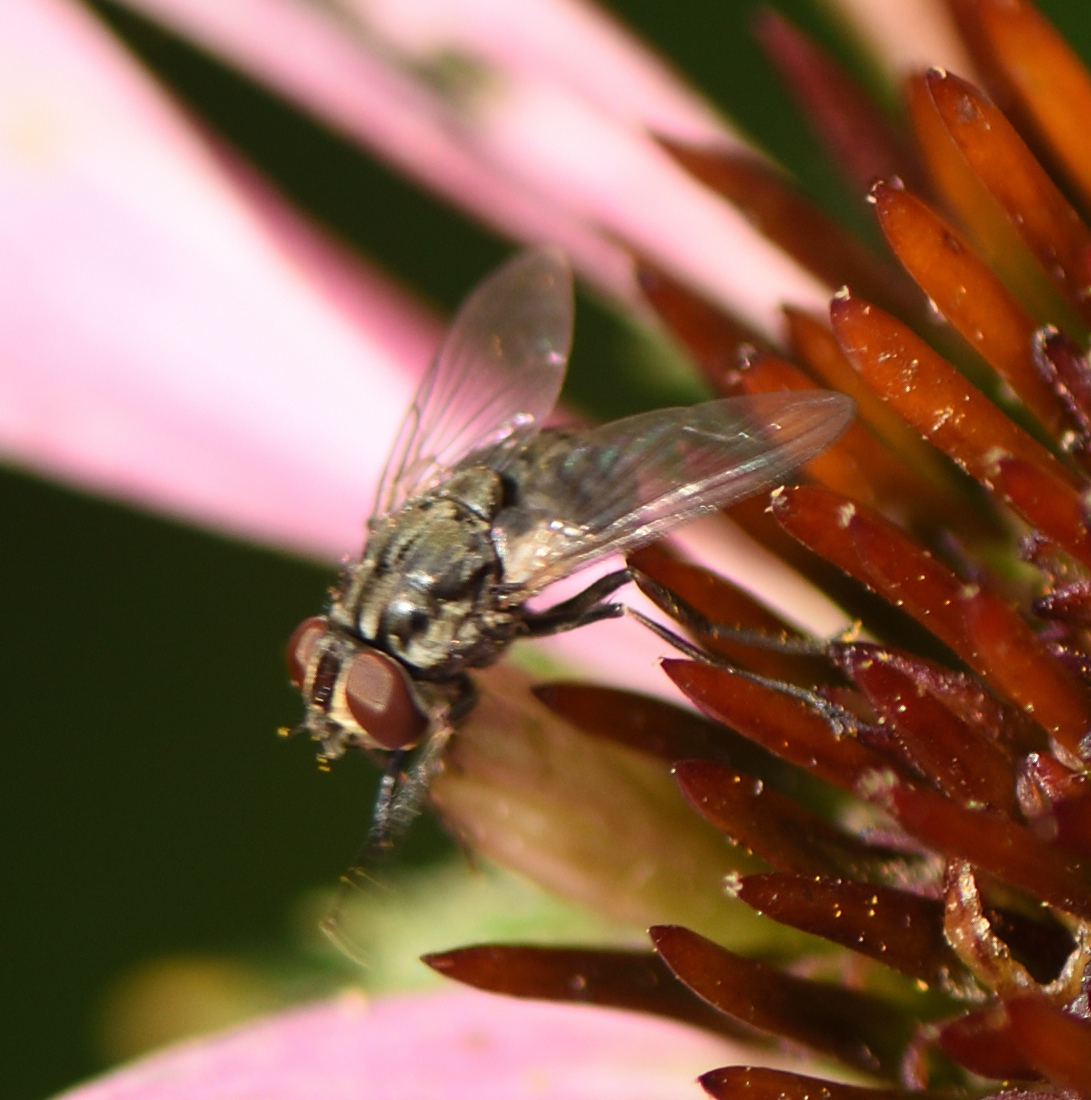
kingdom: Animalia
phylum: Arthropoda
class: Insecta
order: Diptera
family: Muscidae
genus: Stomoxys
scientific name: Stomoxys calcitrans
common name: Stable fly
